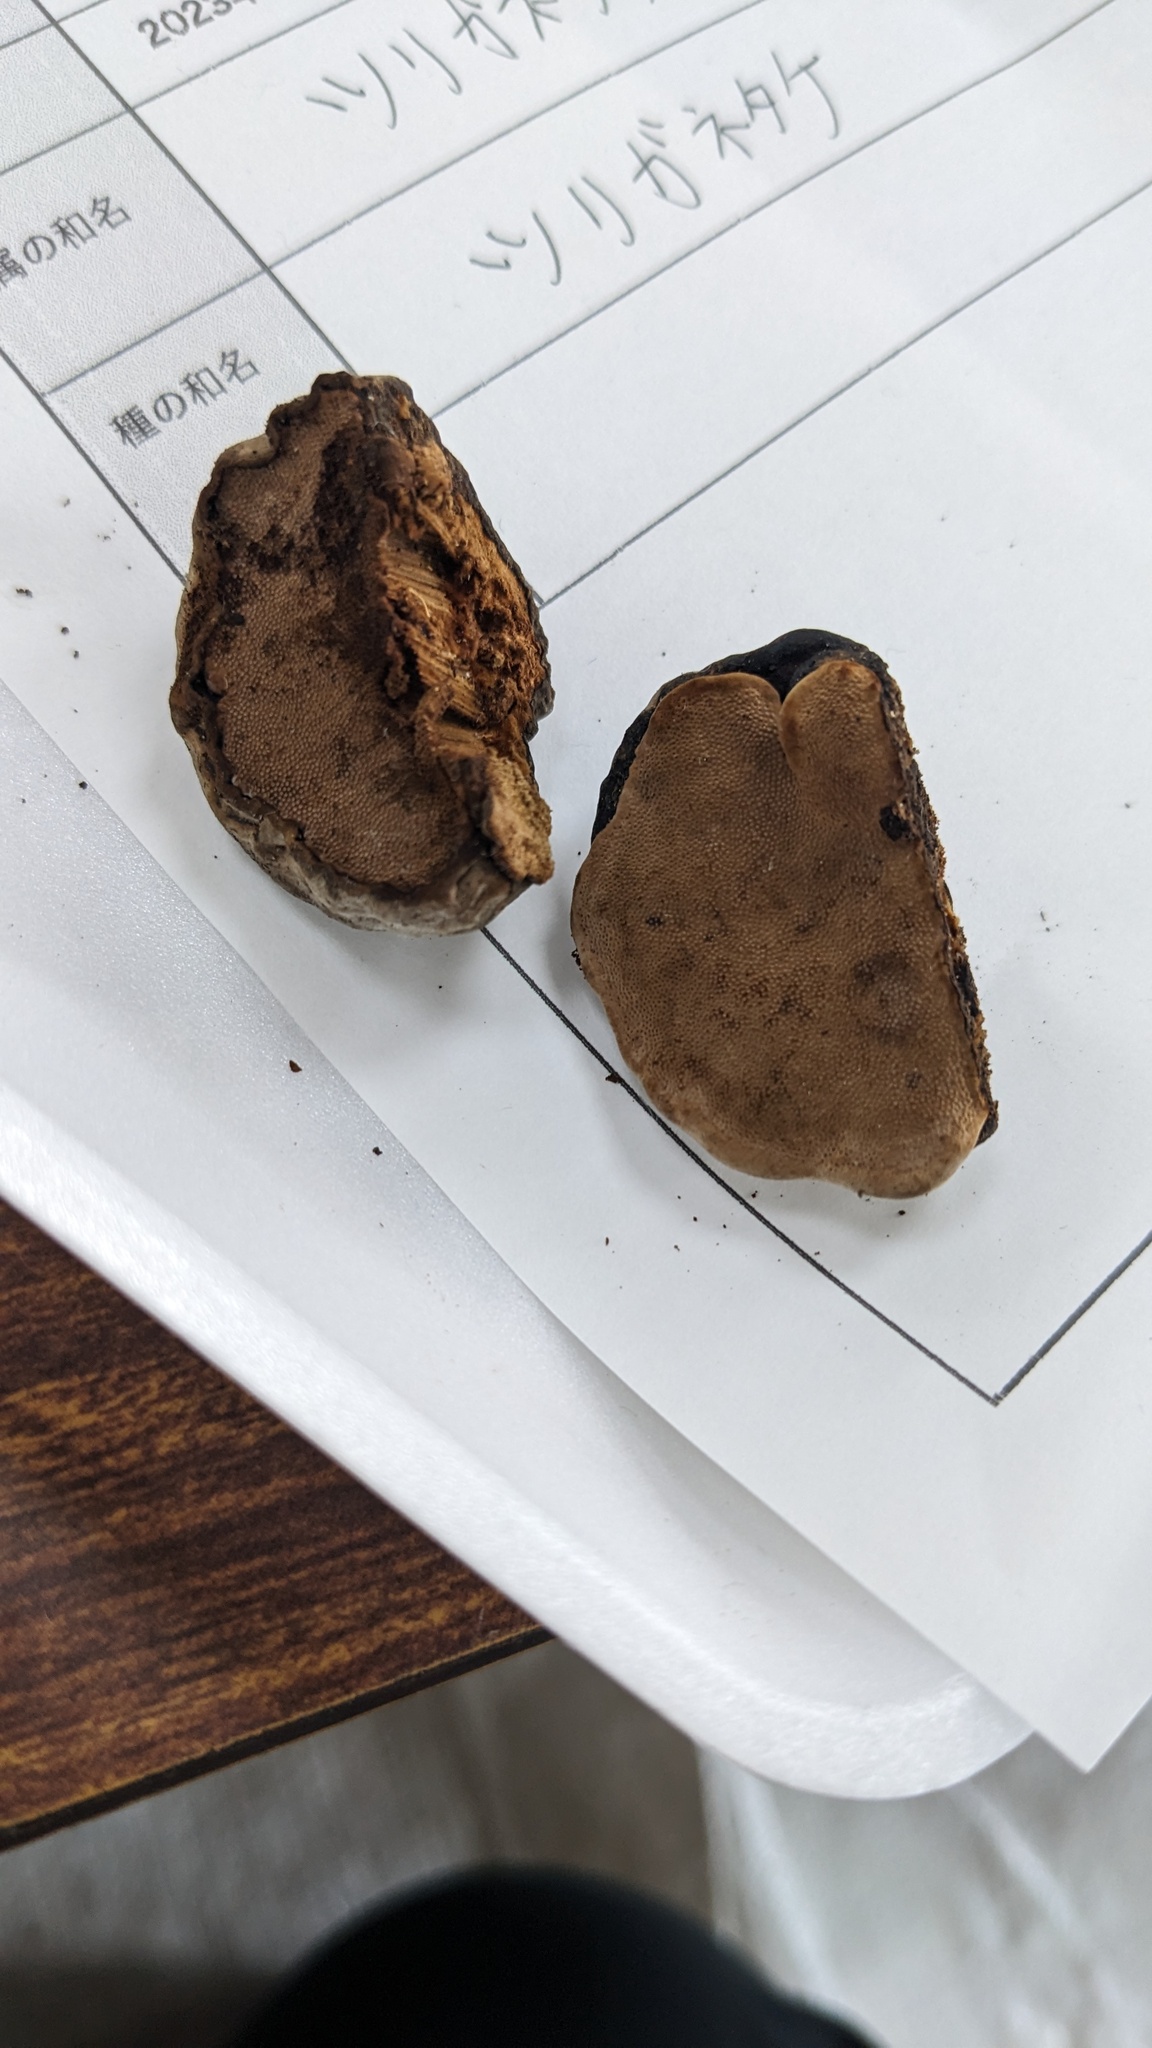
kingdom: Fungi
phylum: Basidiomycota
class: Agaricomycetes
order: Polyporales
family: Polyporaceae
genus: Fomes
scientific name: Fomes fomentarius
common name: Hoof fungus
